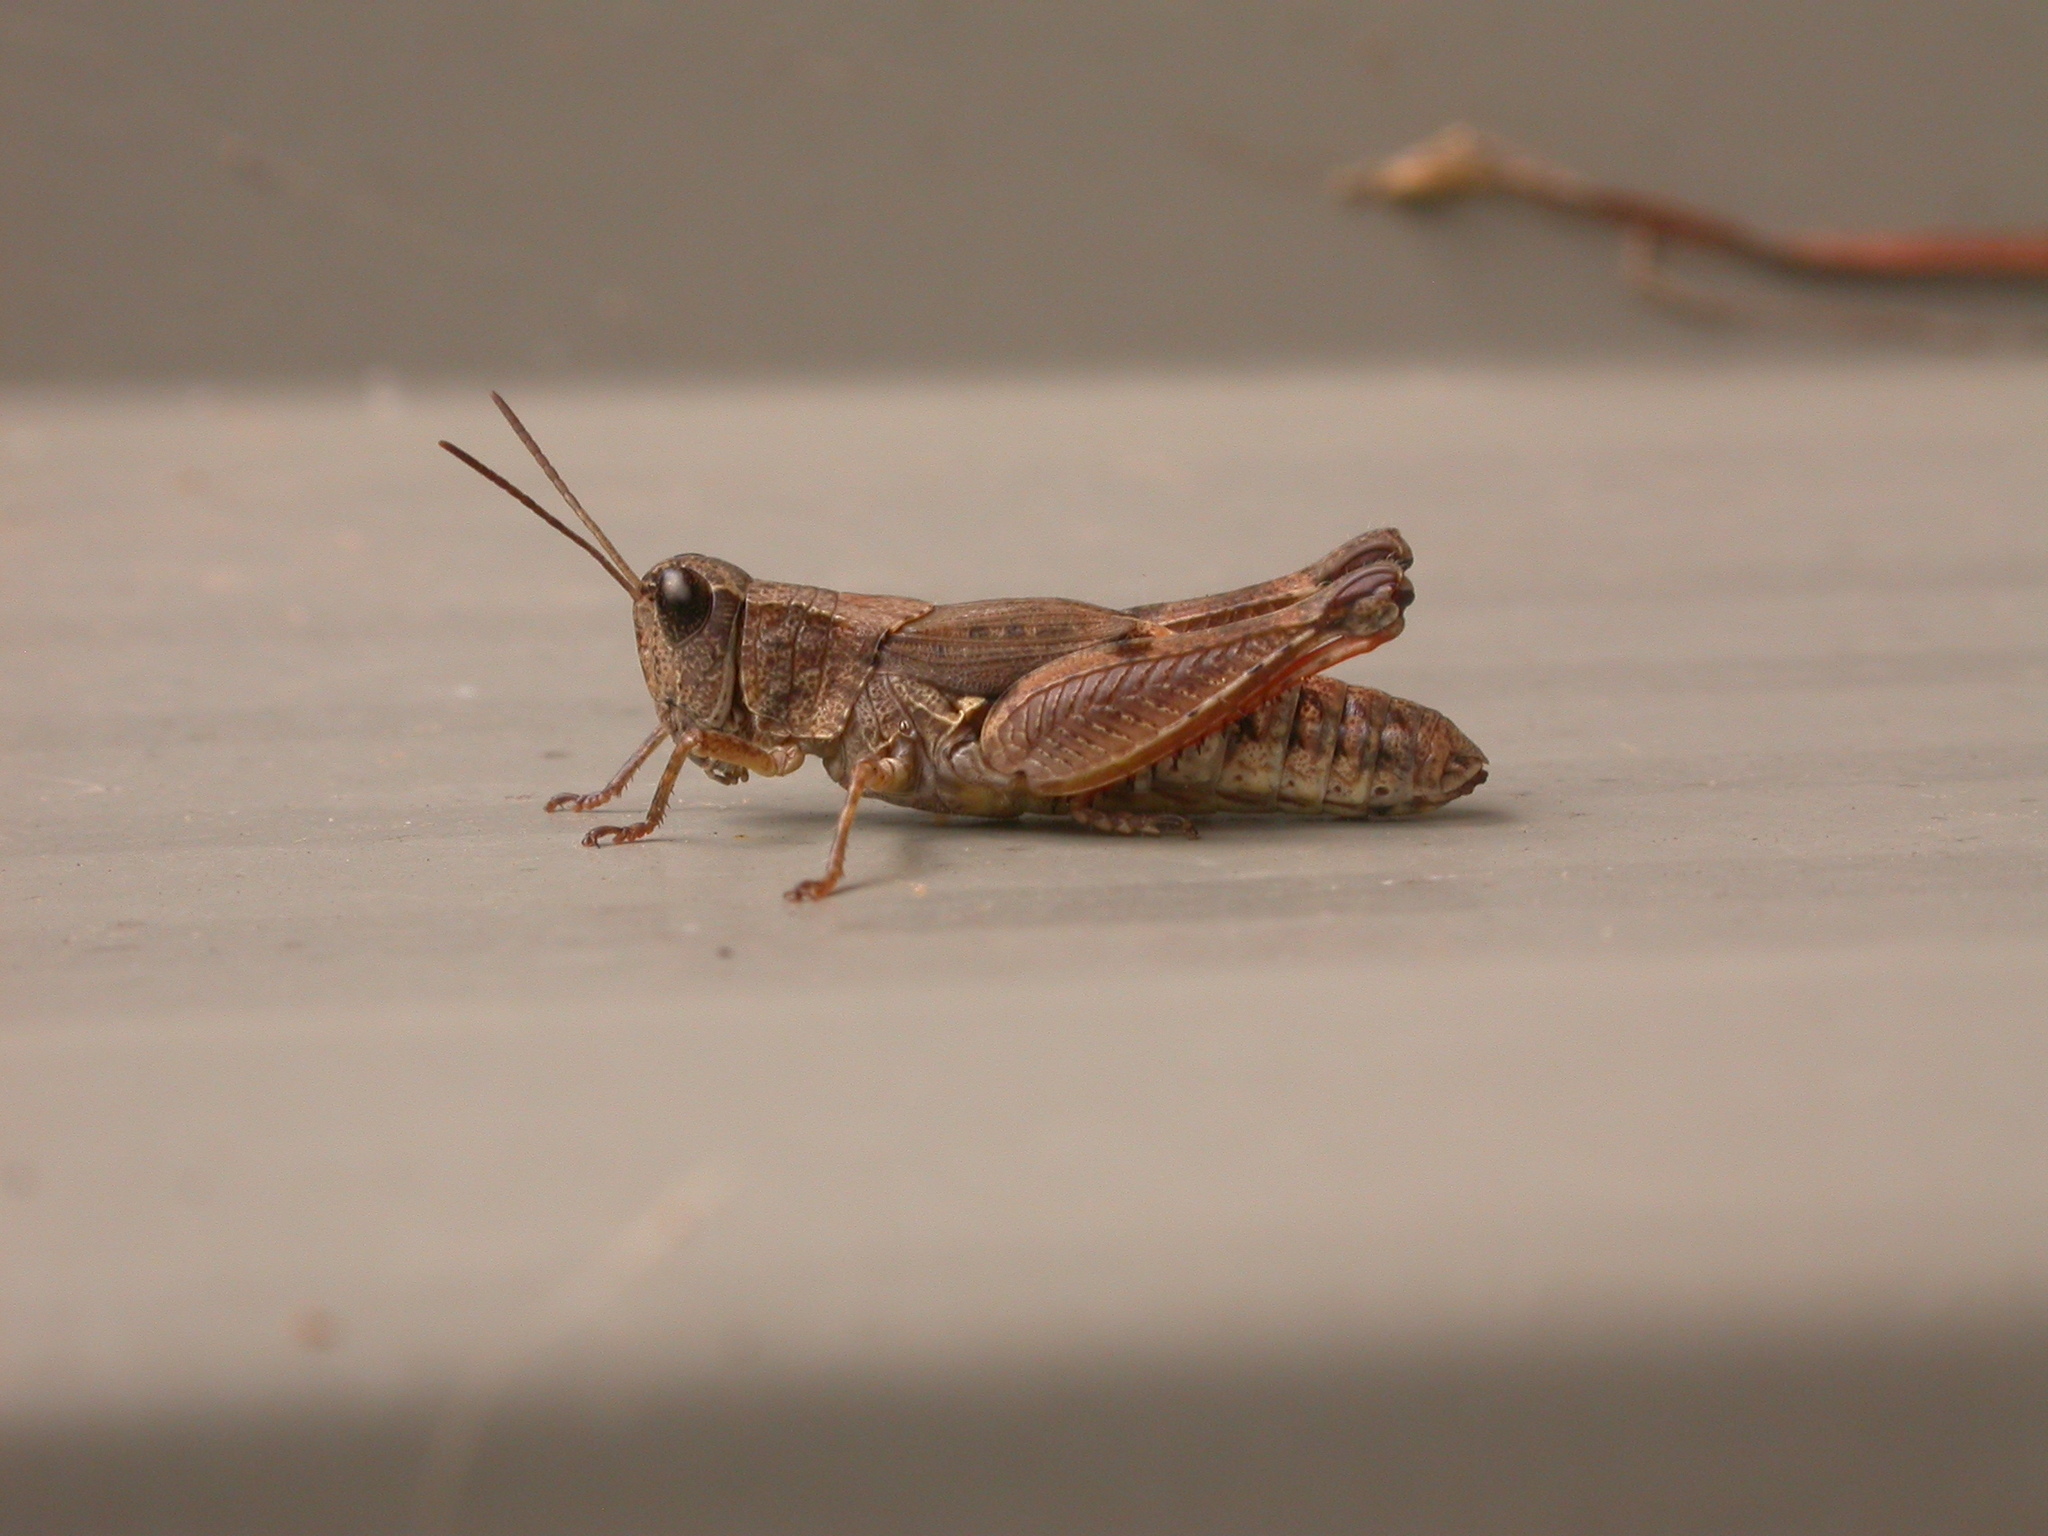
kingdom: Animalia
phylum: Arthropoda
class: Insecta
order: Orthoptera
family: Acrididae
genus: Phaulacridium
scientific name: Phaulacridium vittatum
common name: Wingless grasshopper
